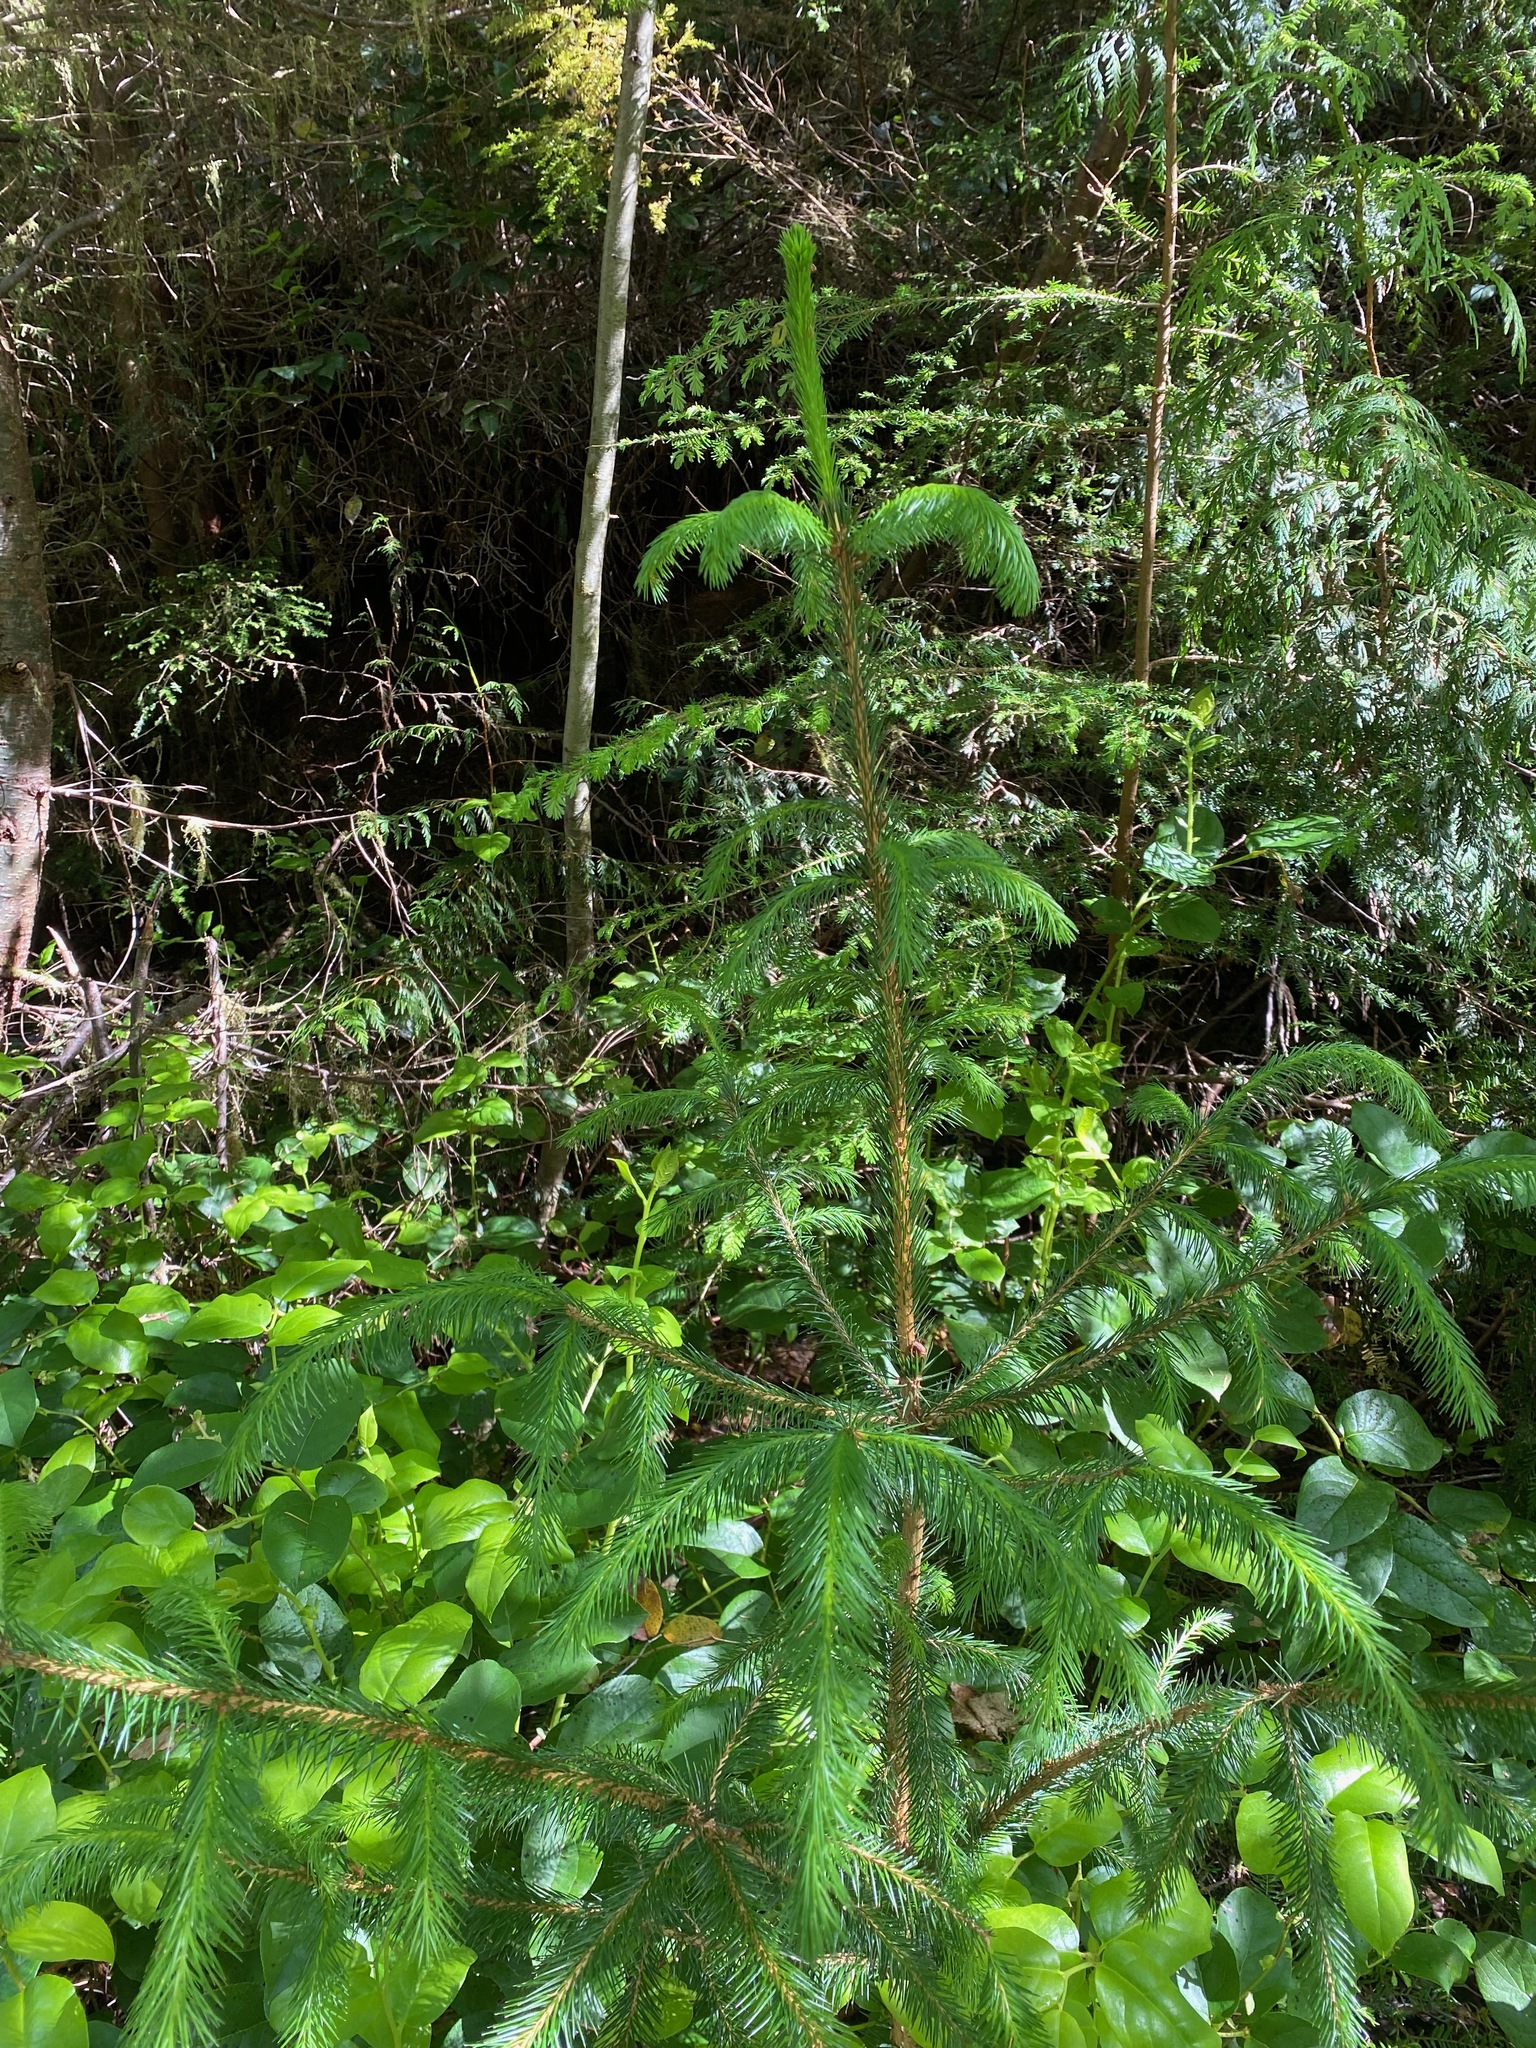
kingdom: Plantae
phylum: Tracheophyta
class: Pinopsida
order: Pinales
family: Pinaceae
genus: Picea
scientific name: Picea sitchensis
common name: Sitka spruce
